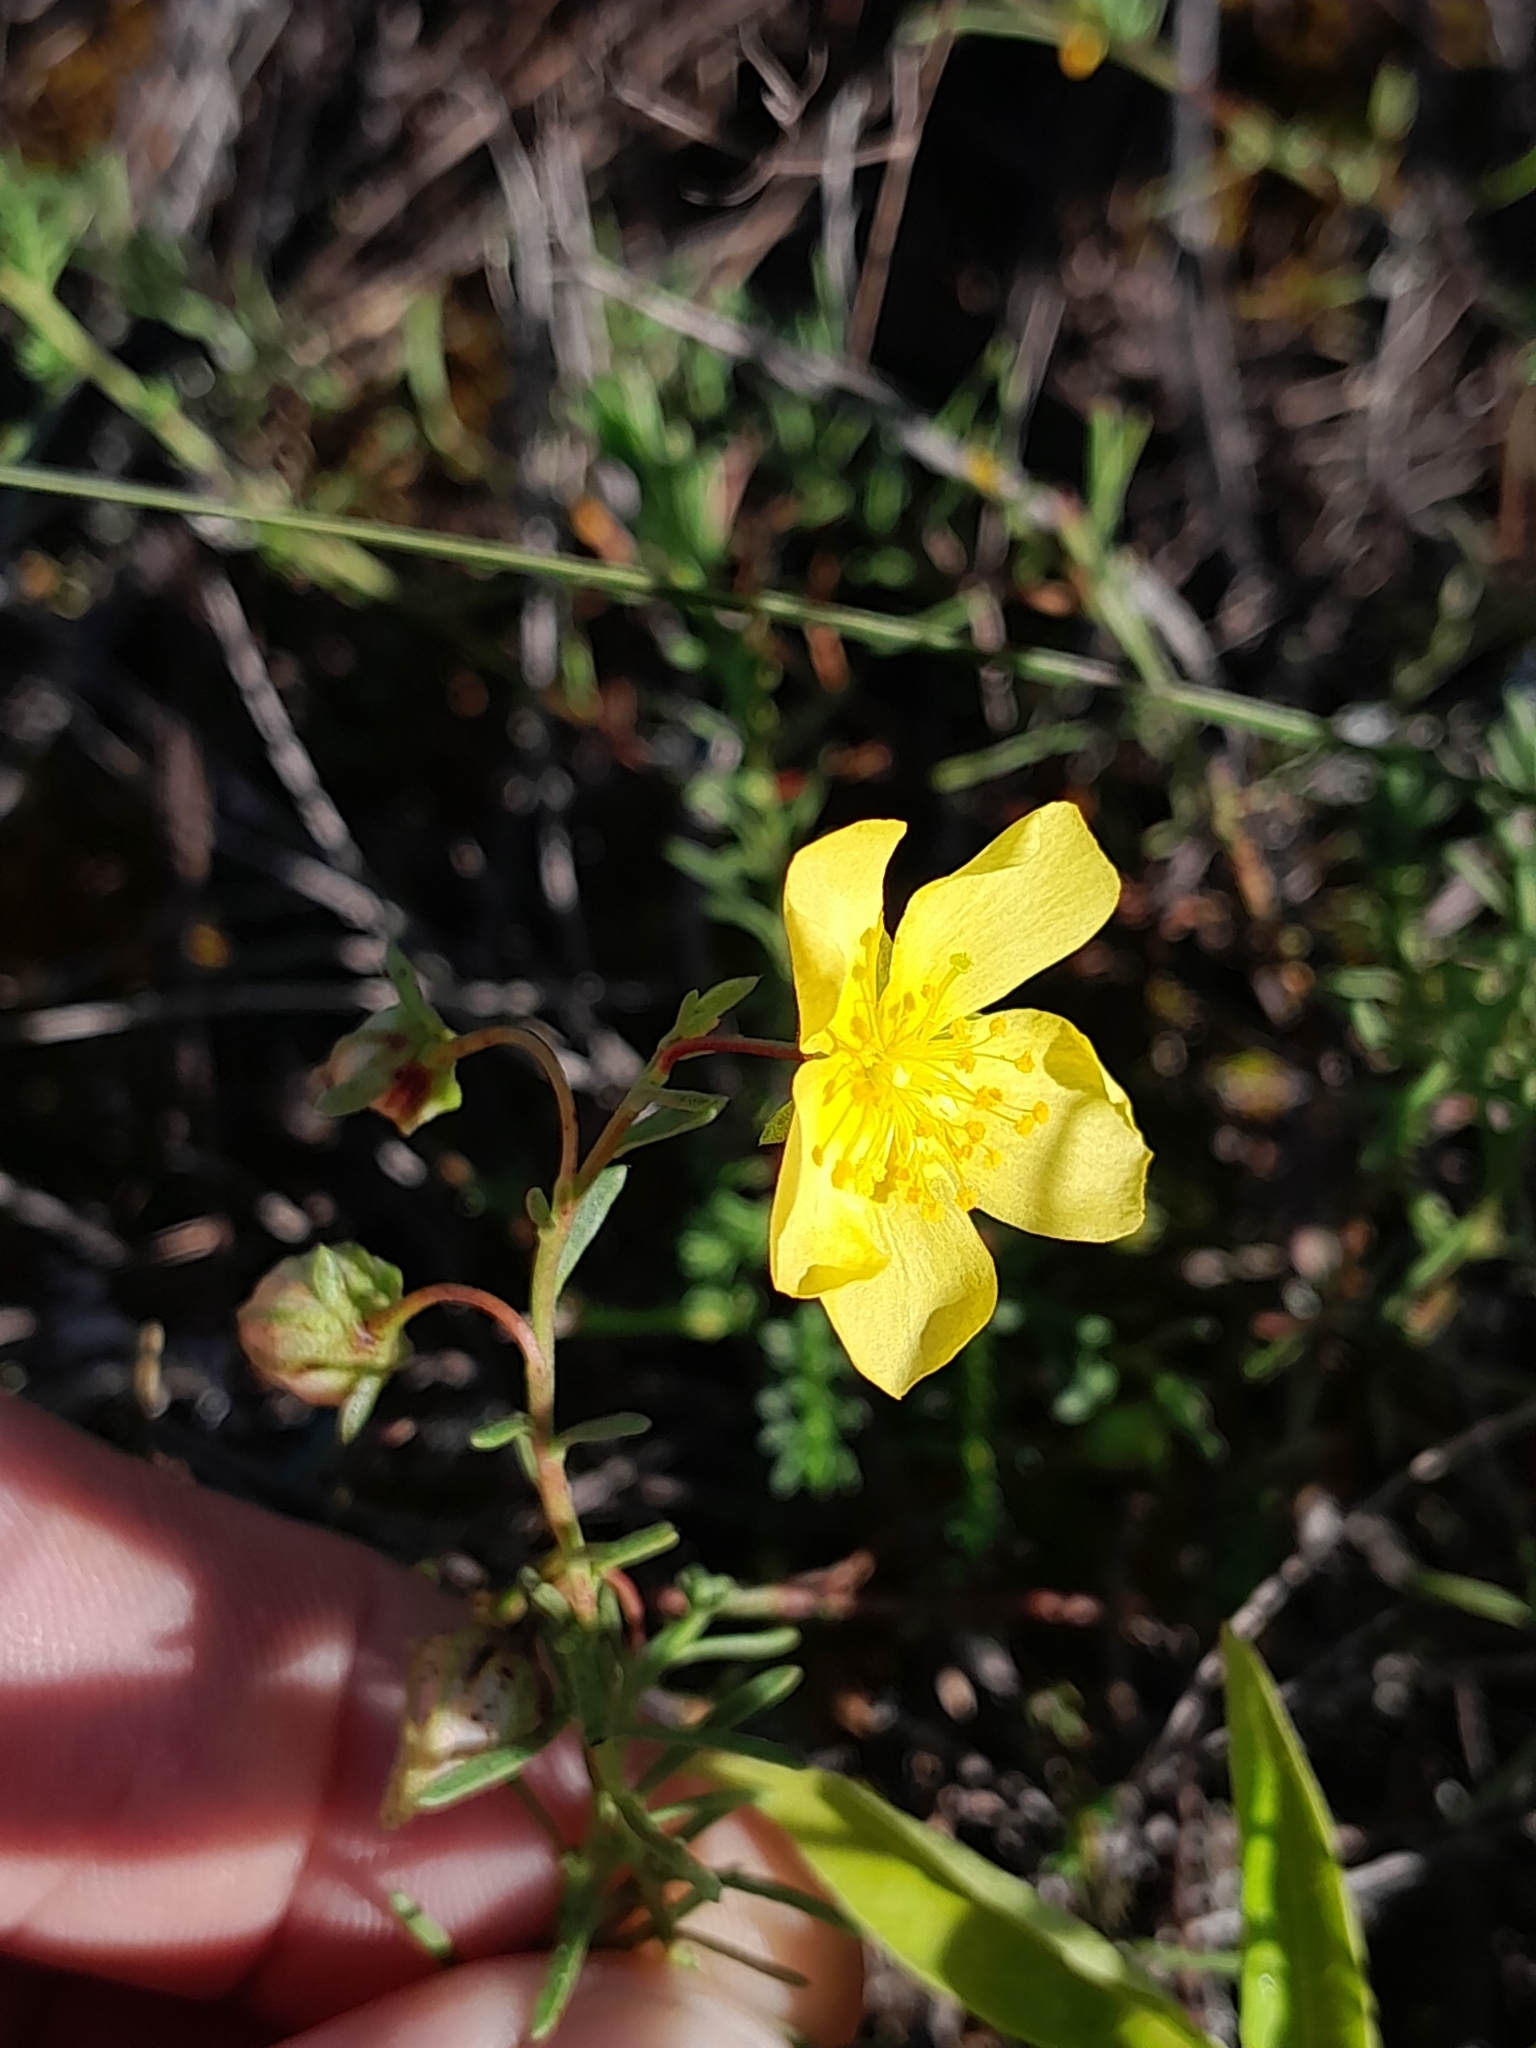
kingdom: Plantae
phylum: Tracheophyta
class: Magnoliopsida
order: Malvales
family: Cistaceae
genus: Fumana
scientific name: Fumana procumbens
